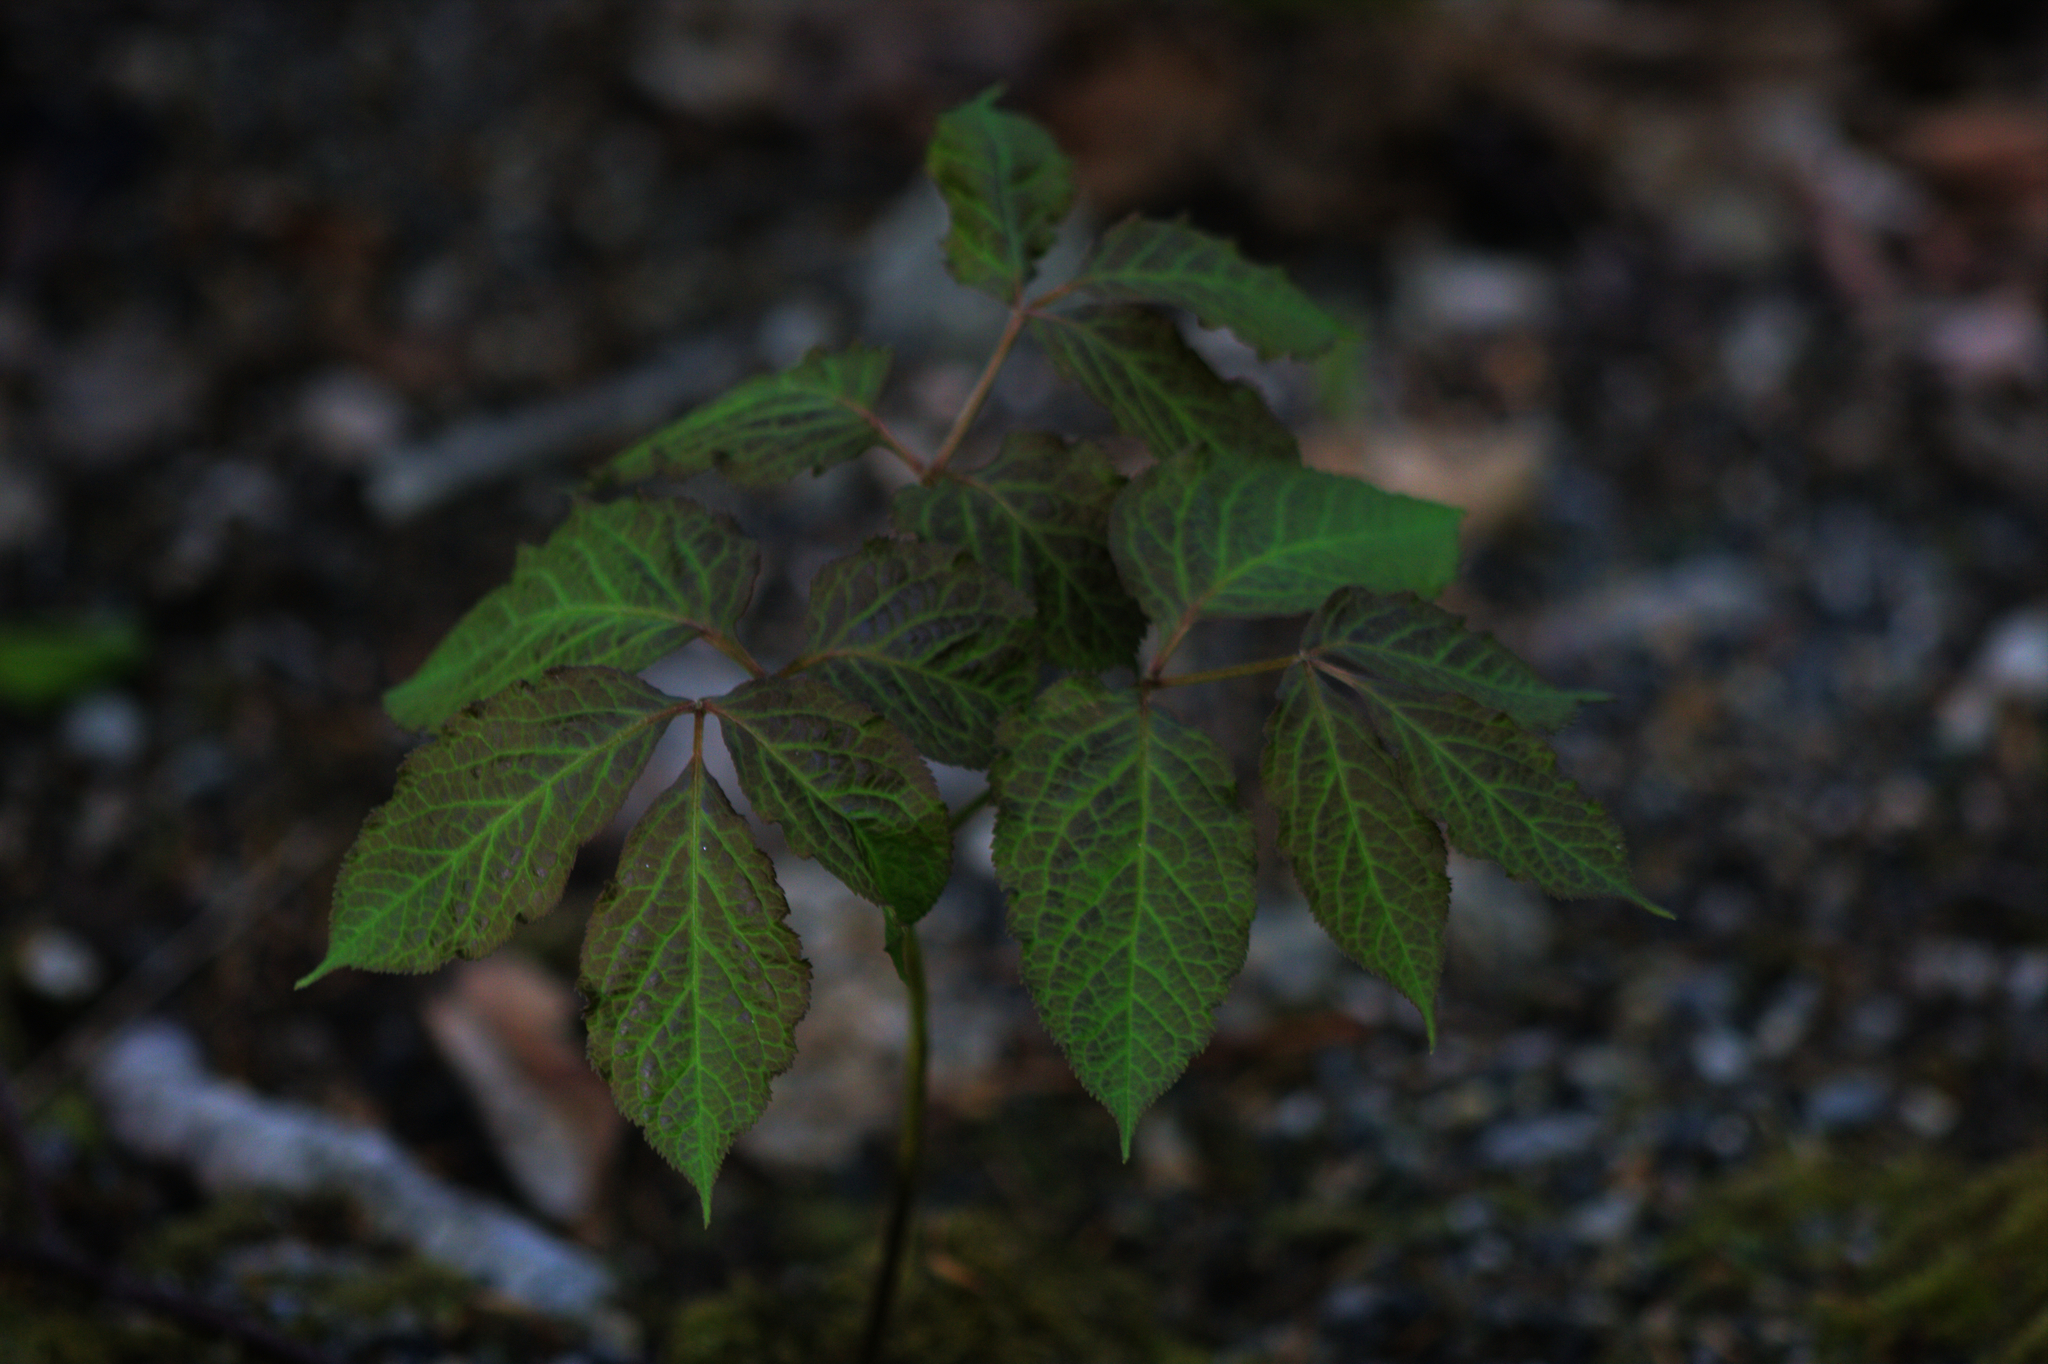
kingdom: Plantae
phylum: Tracheophyta
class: Magnoliopsida
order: Apiales
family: Araliaceae
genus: Aralia
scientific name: Aralia nudicaulis
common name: Wild sarsaparilla
